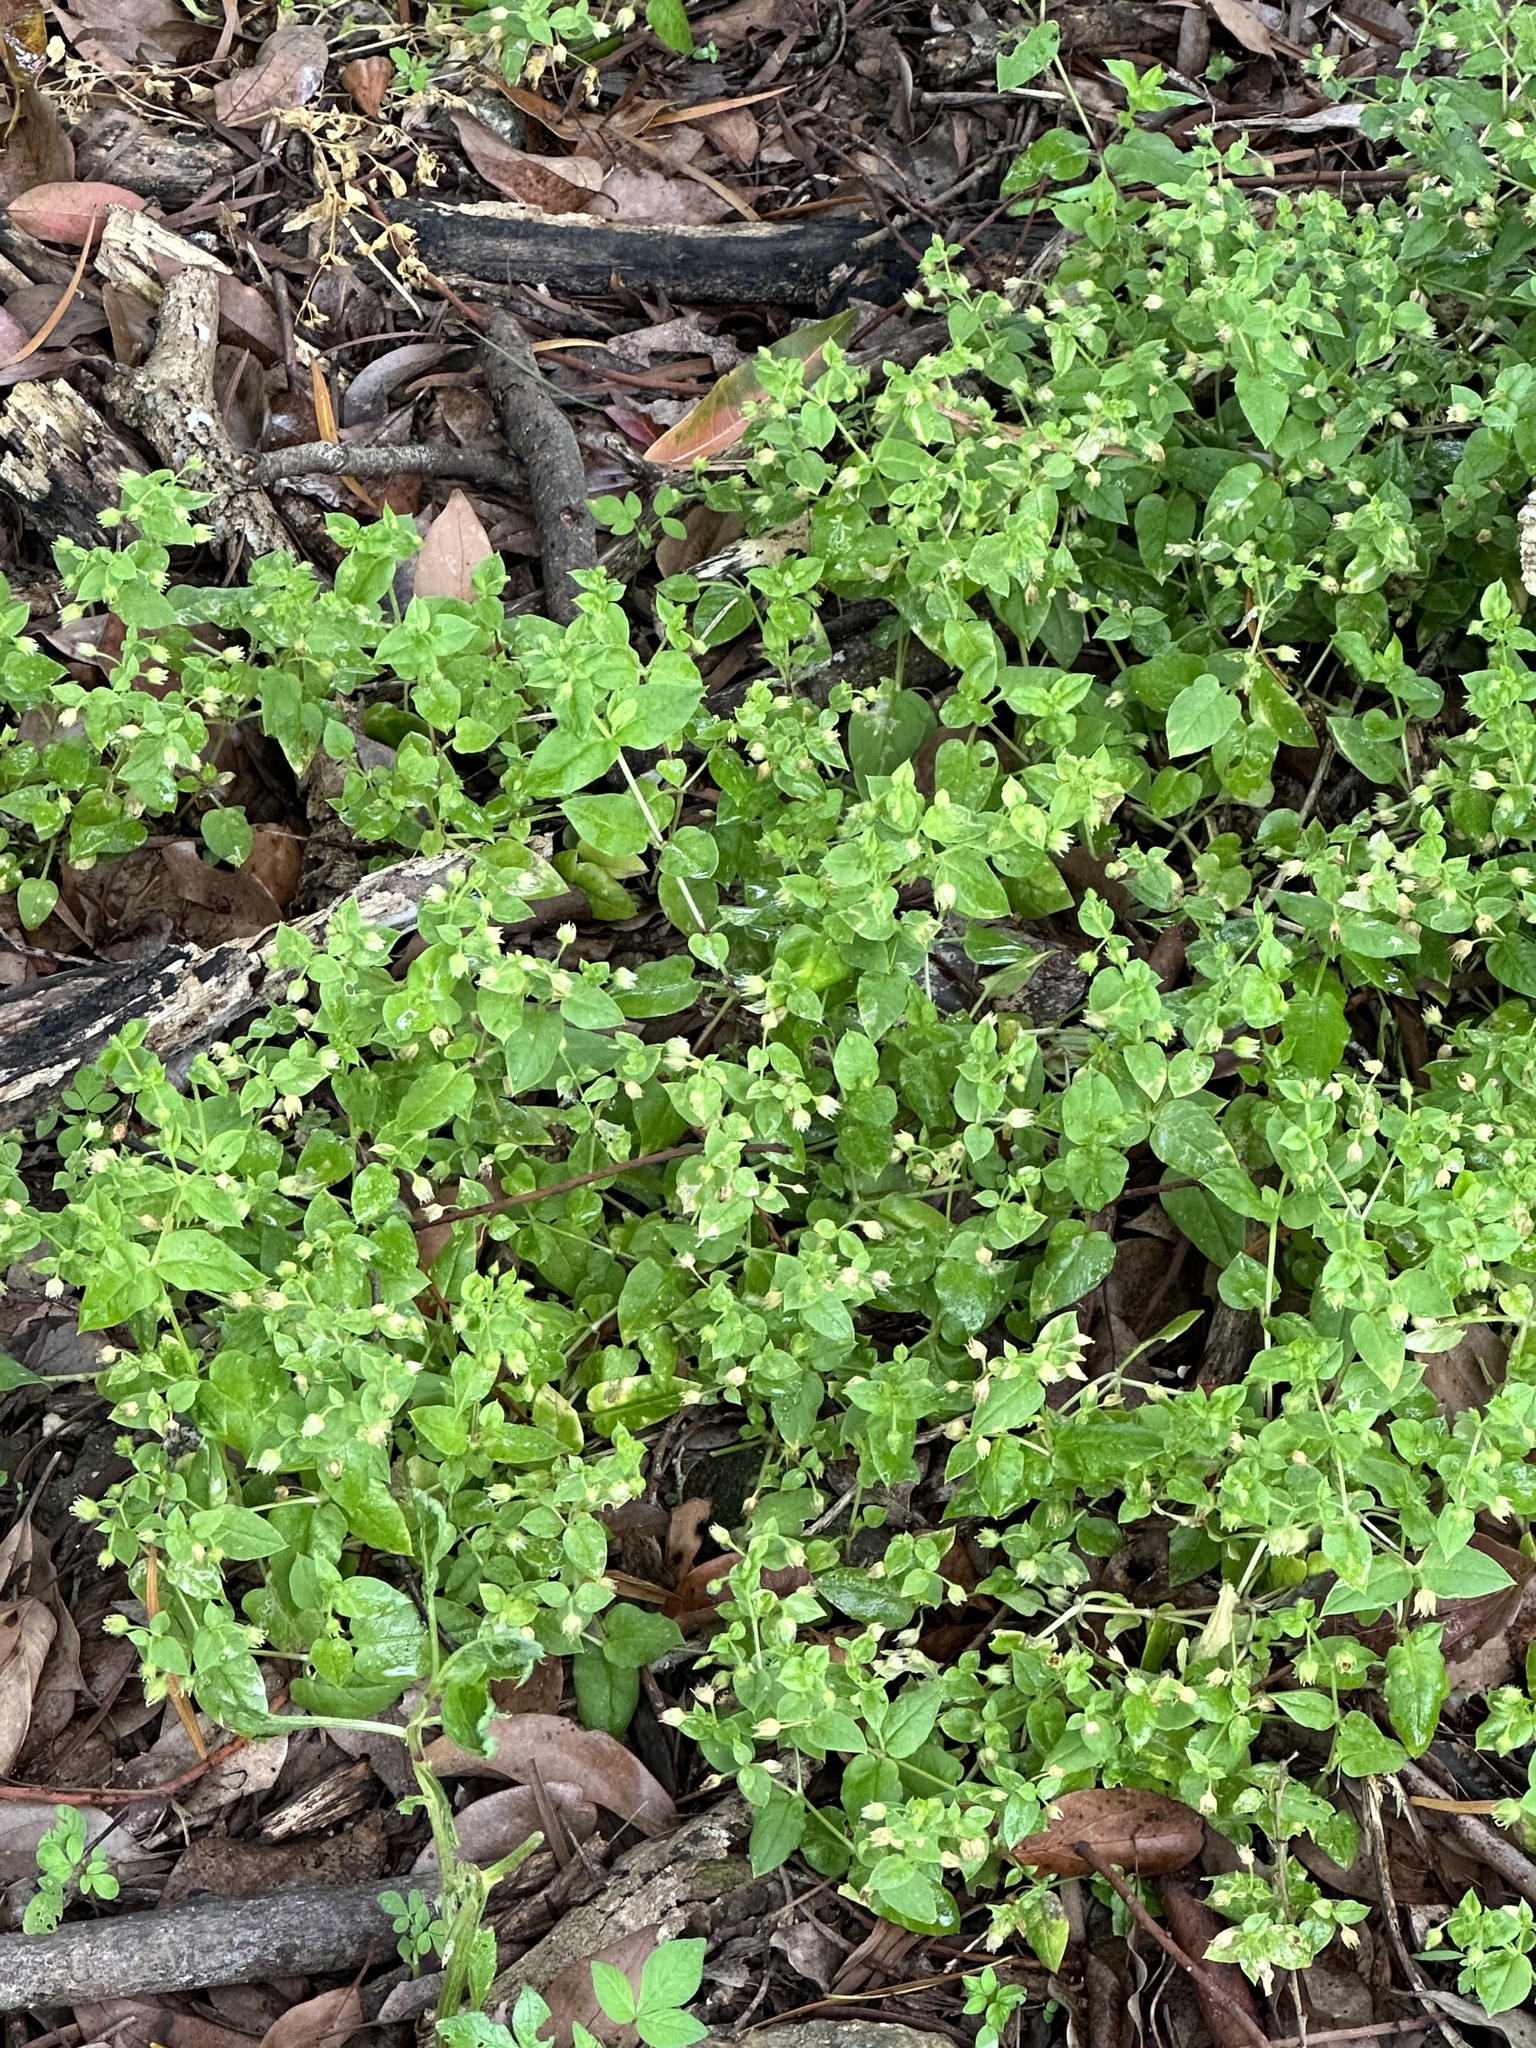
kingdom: Plantae
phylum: Tracheophyta
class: Magnoliopsida
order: Caryophyllales
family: Caryophyllaceae
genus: Stellaria
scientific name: Stellaria aquatica
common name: Water chickweed
